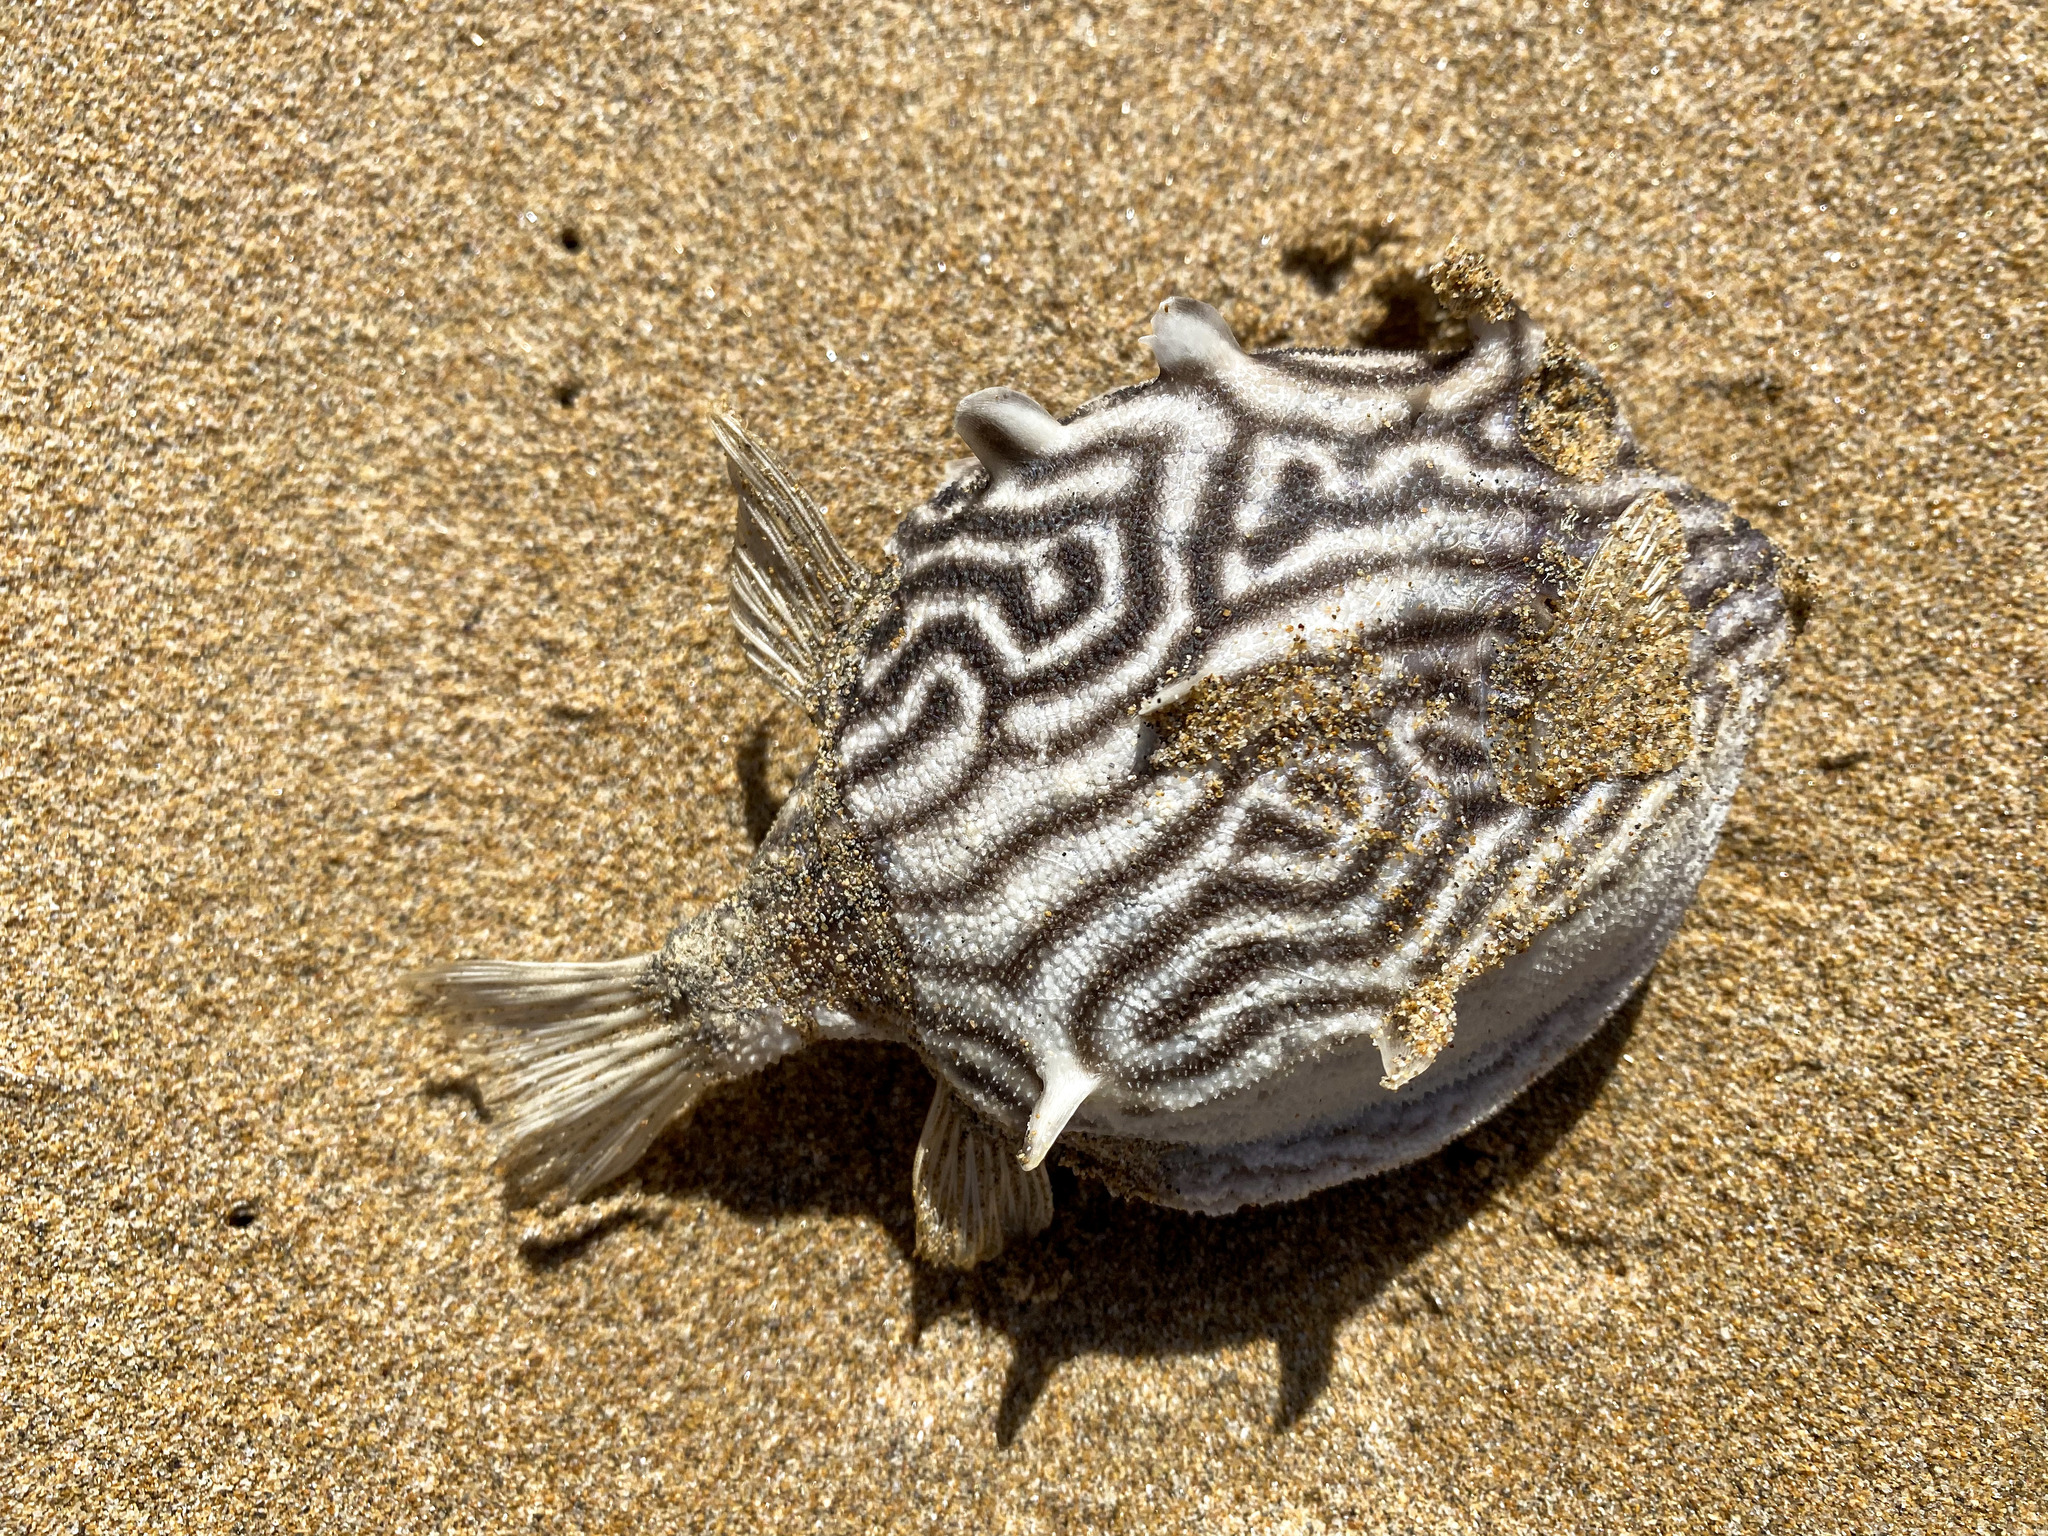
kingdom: Animalia
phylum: Chordata
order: Tetraodontiformes
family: Aracanidae
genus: Aracana
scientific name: Aracana aurita
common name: Shaw’s cowfish
